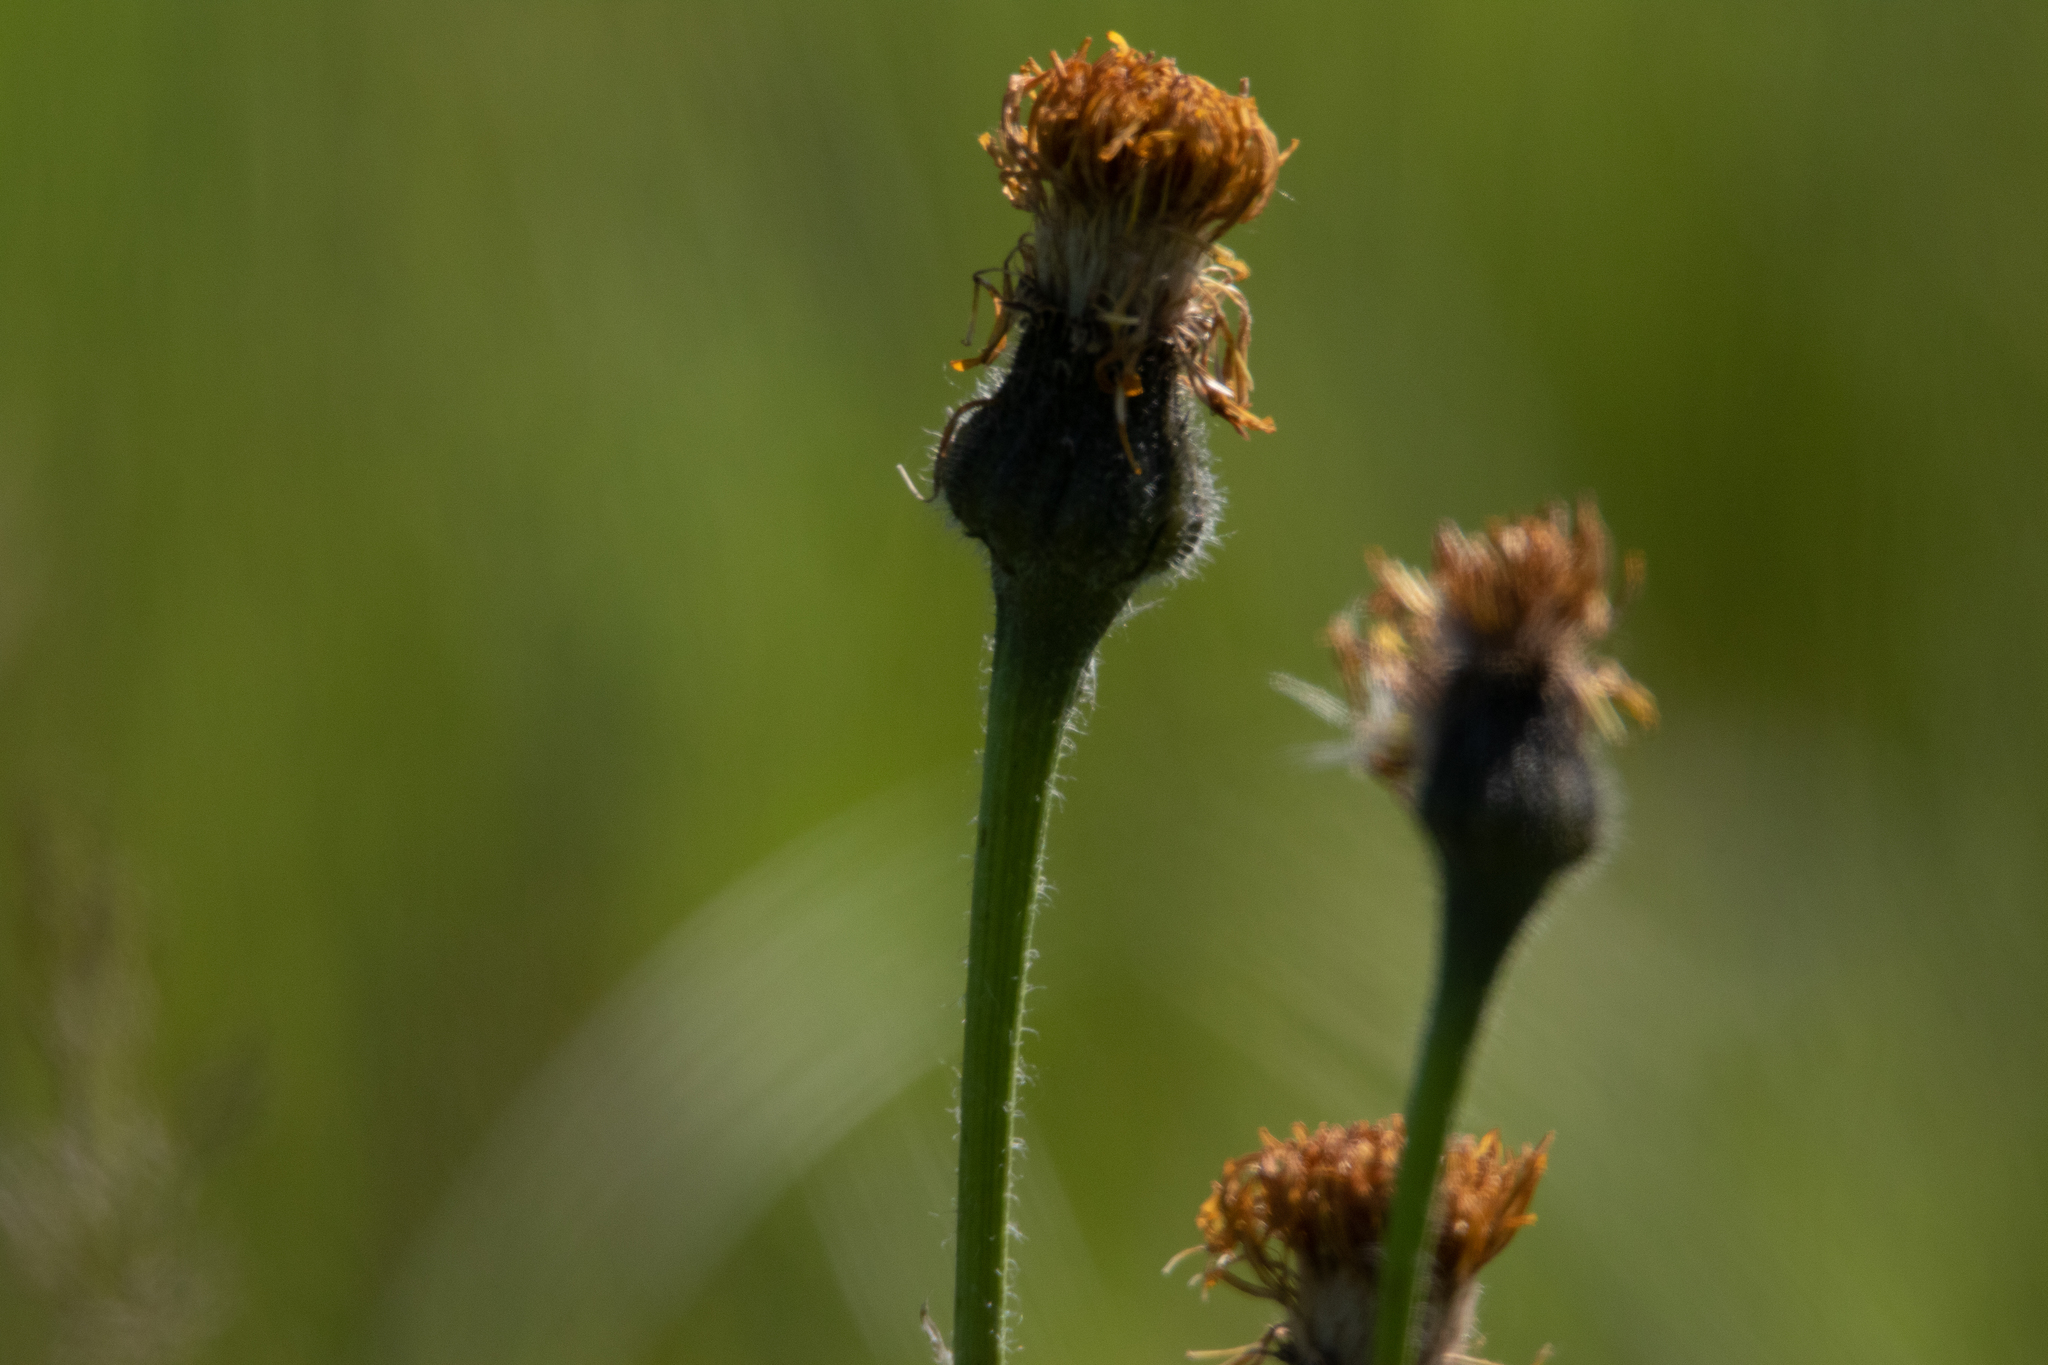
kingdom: Plantae
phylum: Tracheophyta
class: Magnoliopsida
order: Asterales
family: Asteraceae
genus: Trommsdorffia
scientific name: Trommsdorffia maculata
